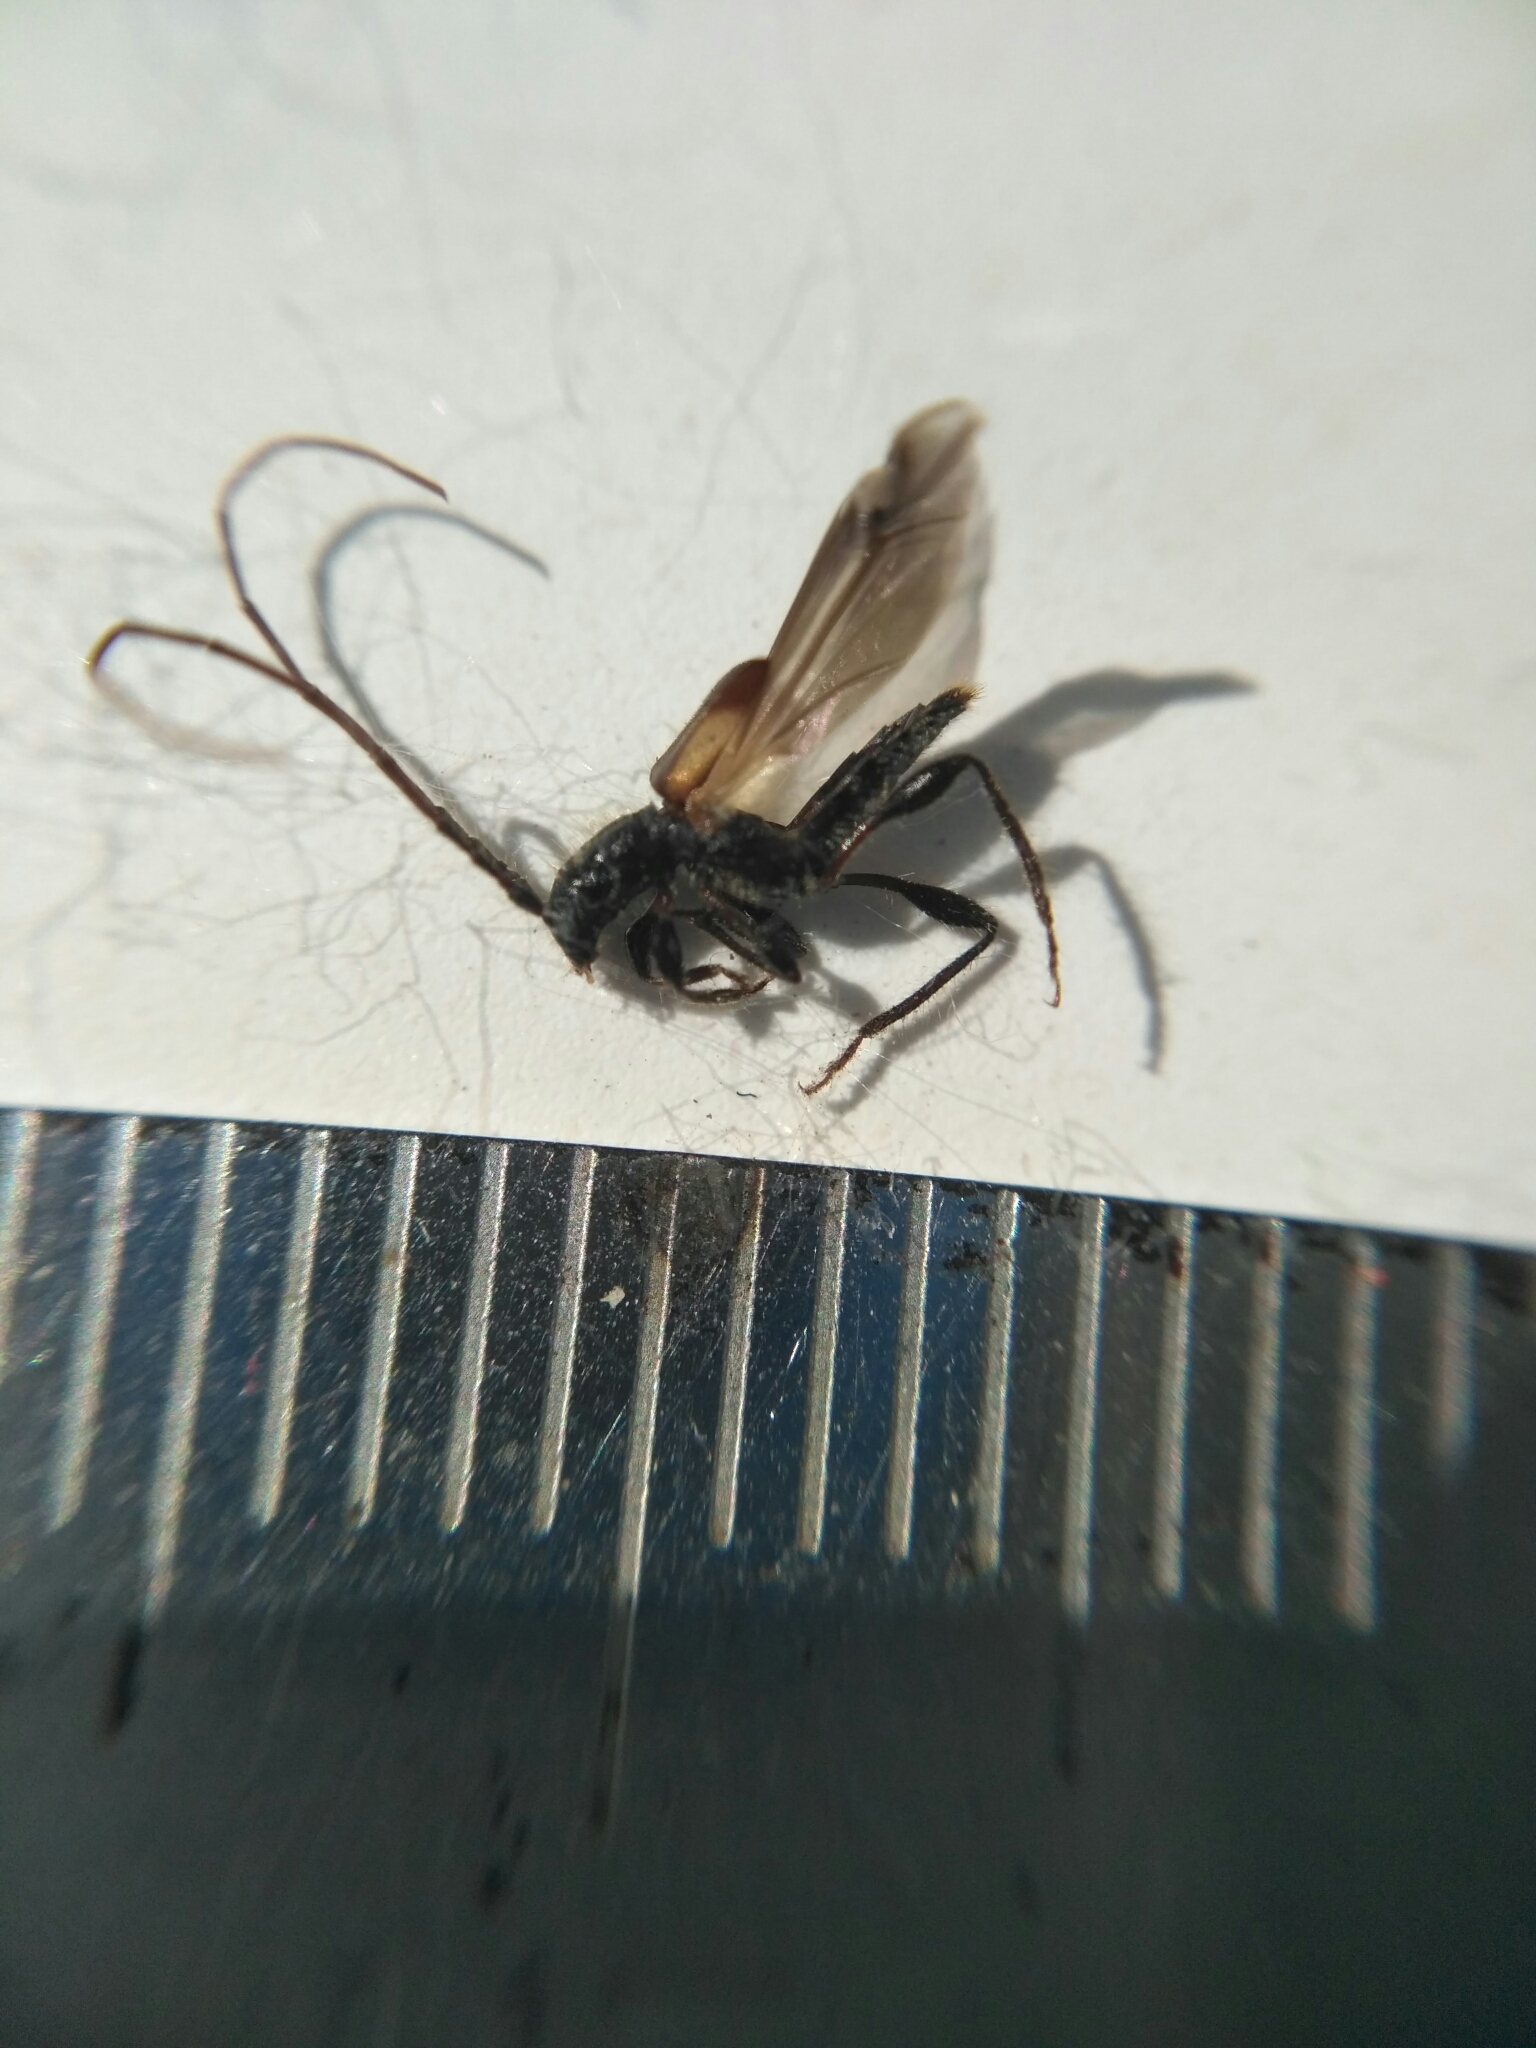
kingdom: Animalia
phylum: Arthropoda
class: Insecta
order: Coleoptera
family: Cerambycidae
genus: Molorchus
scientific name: Molorchus kiesenwetteri
